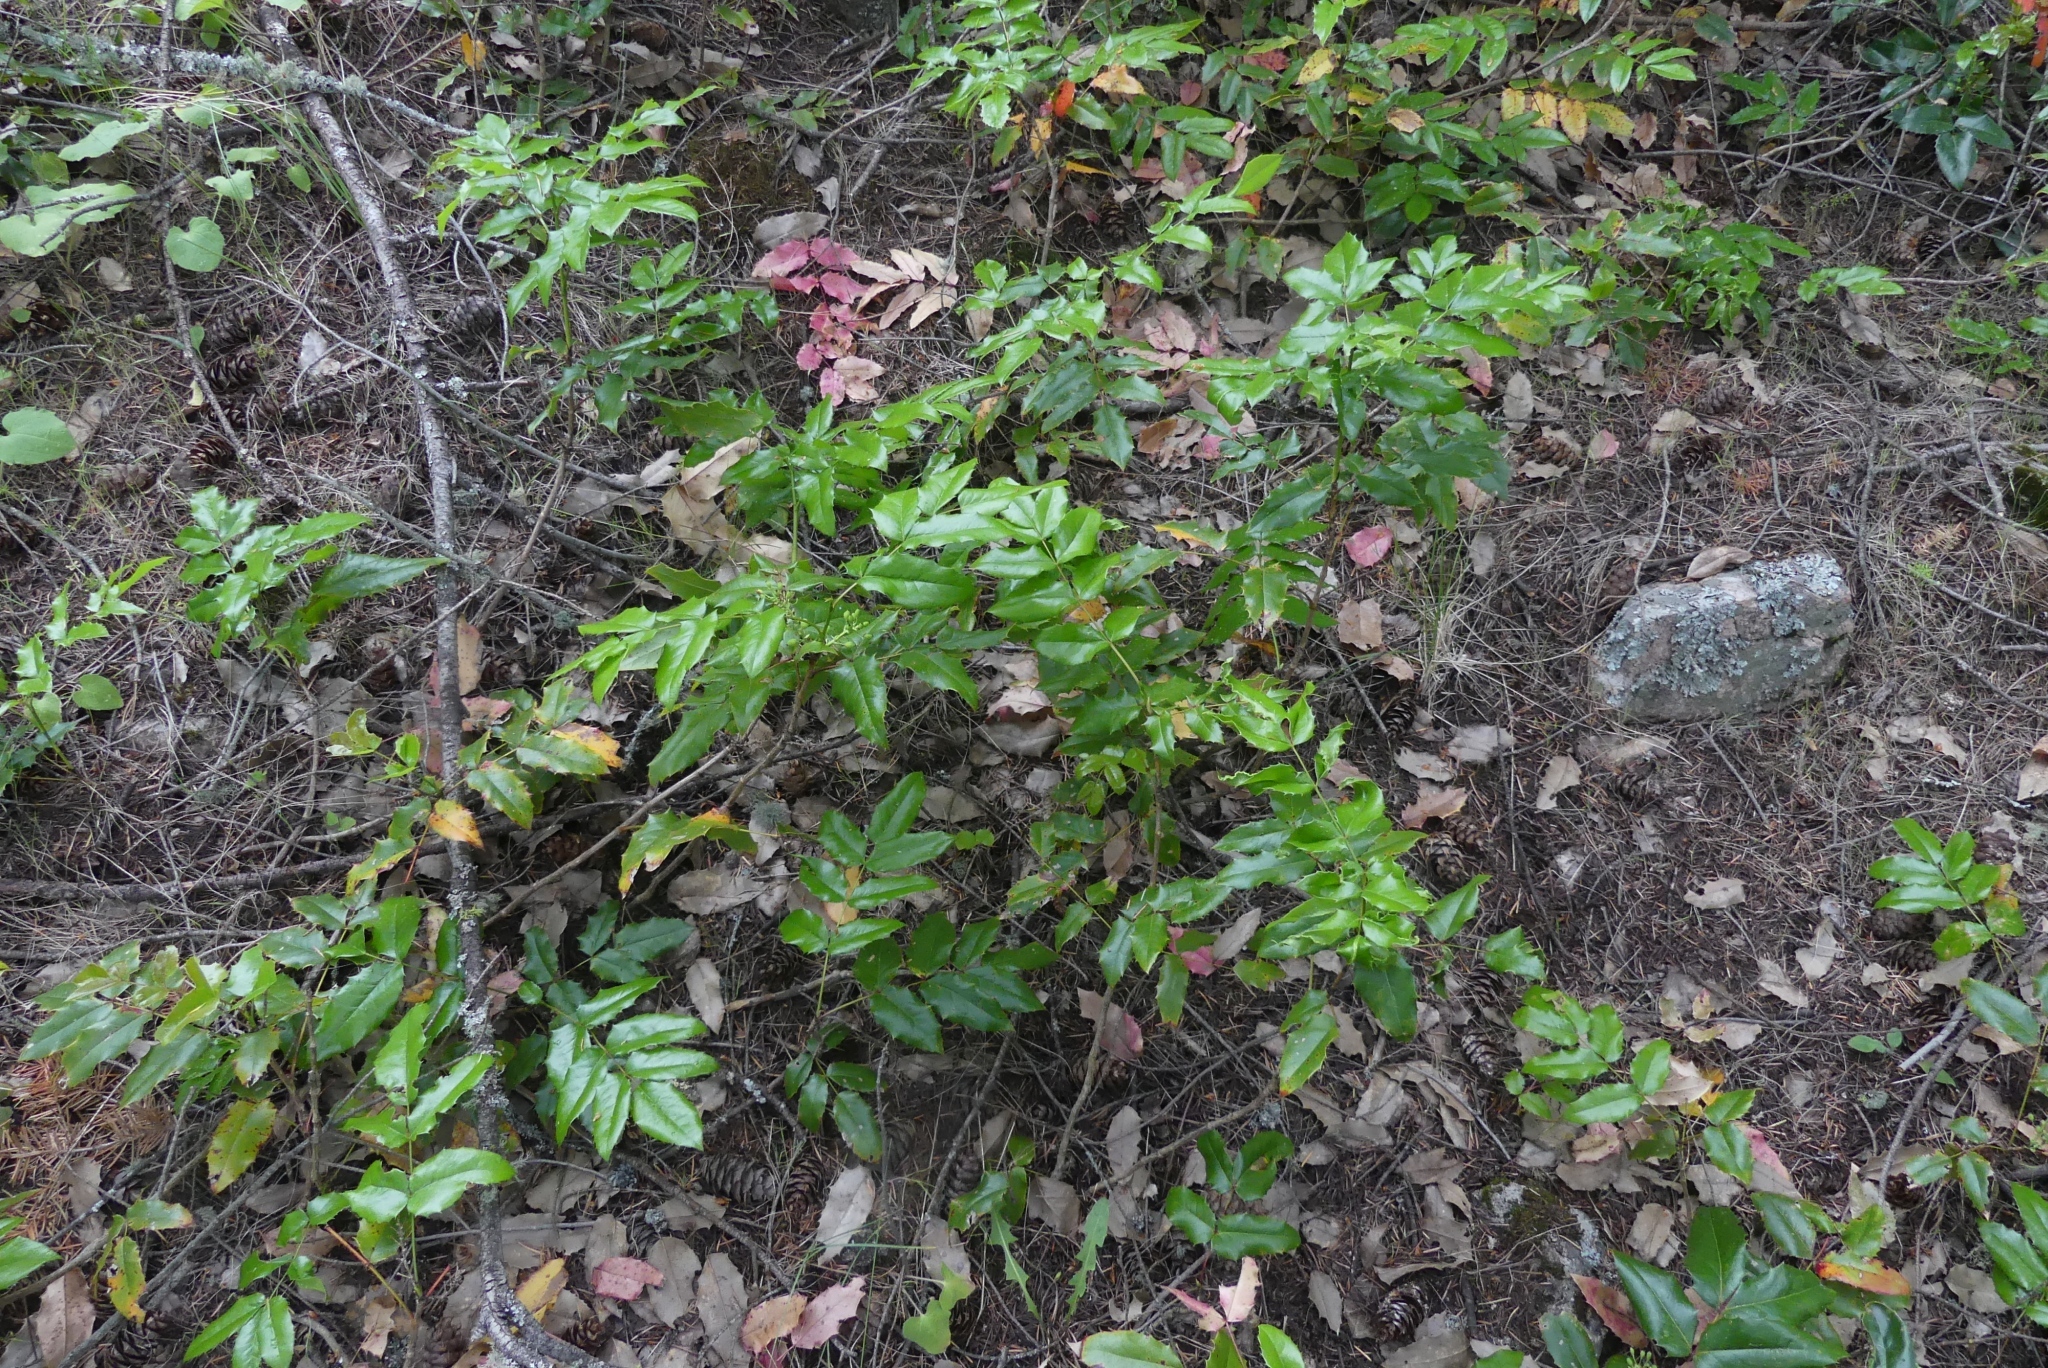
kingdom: Plantae
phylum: Tracheophyta
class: Magnoliopsida
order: Ranunculales
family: Berberidaceae
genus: Mahonia
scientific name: Mahonia aquifolium
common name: Oregon-grape
